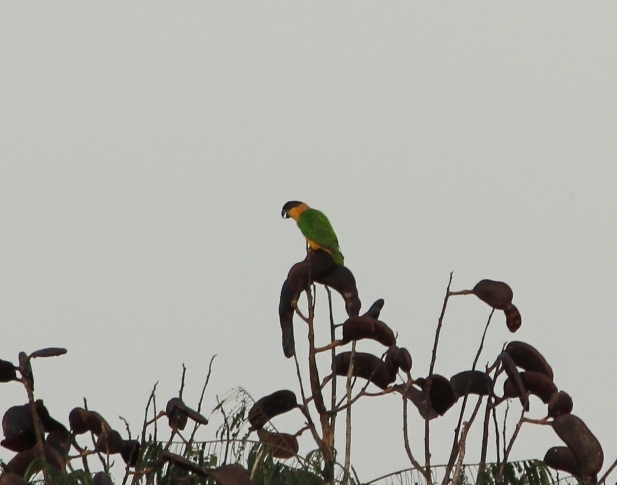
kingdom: Animalia
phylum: Chordata
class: Aves
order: Psittaciformes
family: Psittacidae
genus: Pionites
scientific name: Pionites melanocephalus
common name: Black-headed parrot
